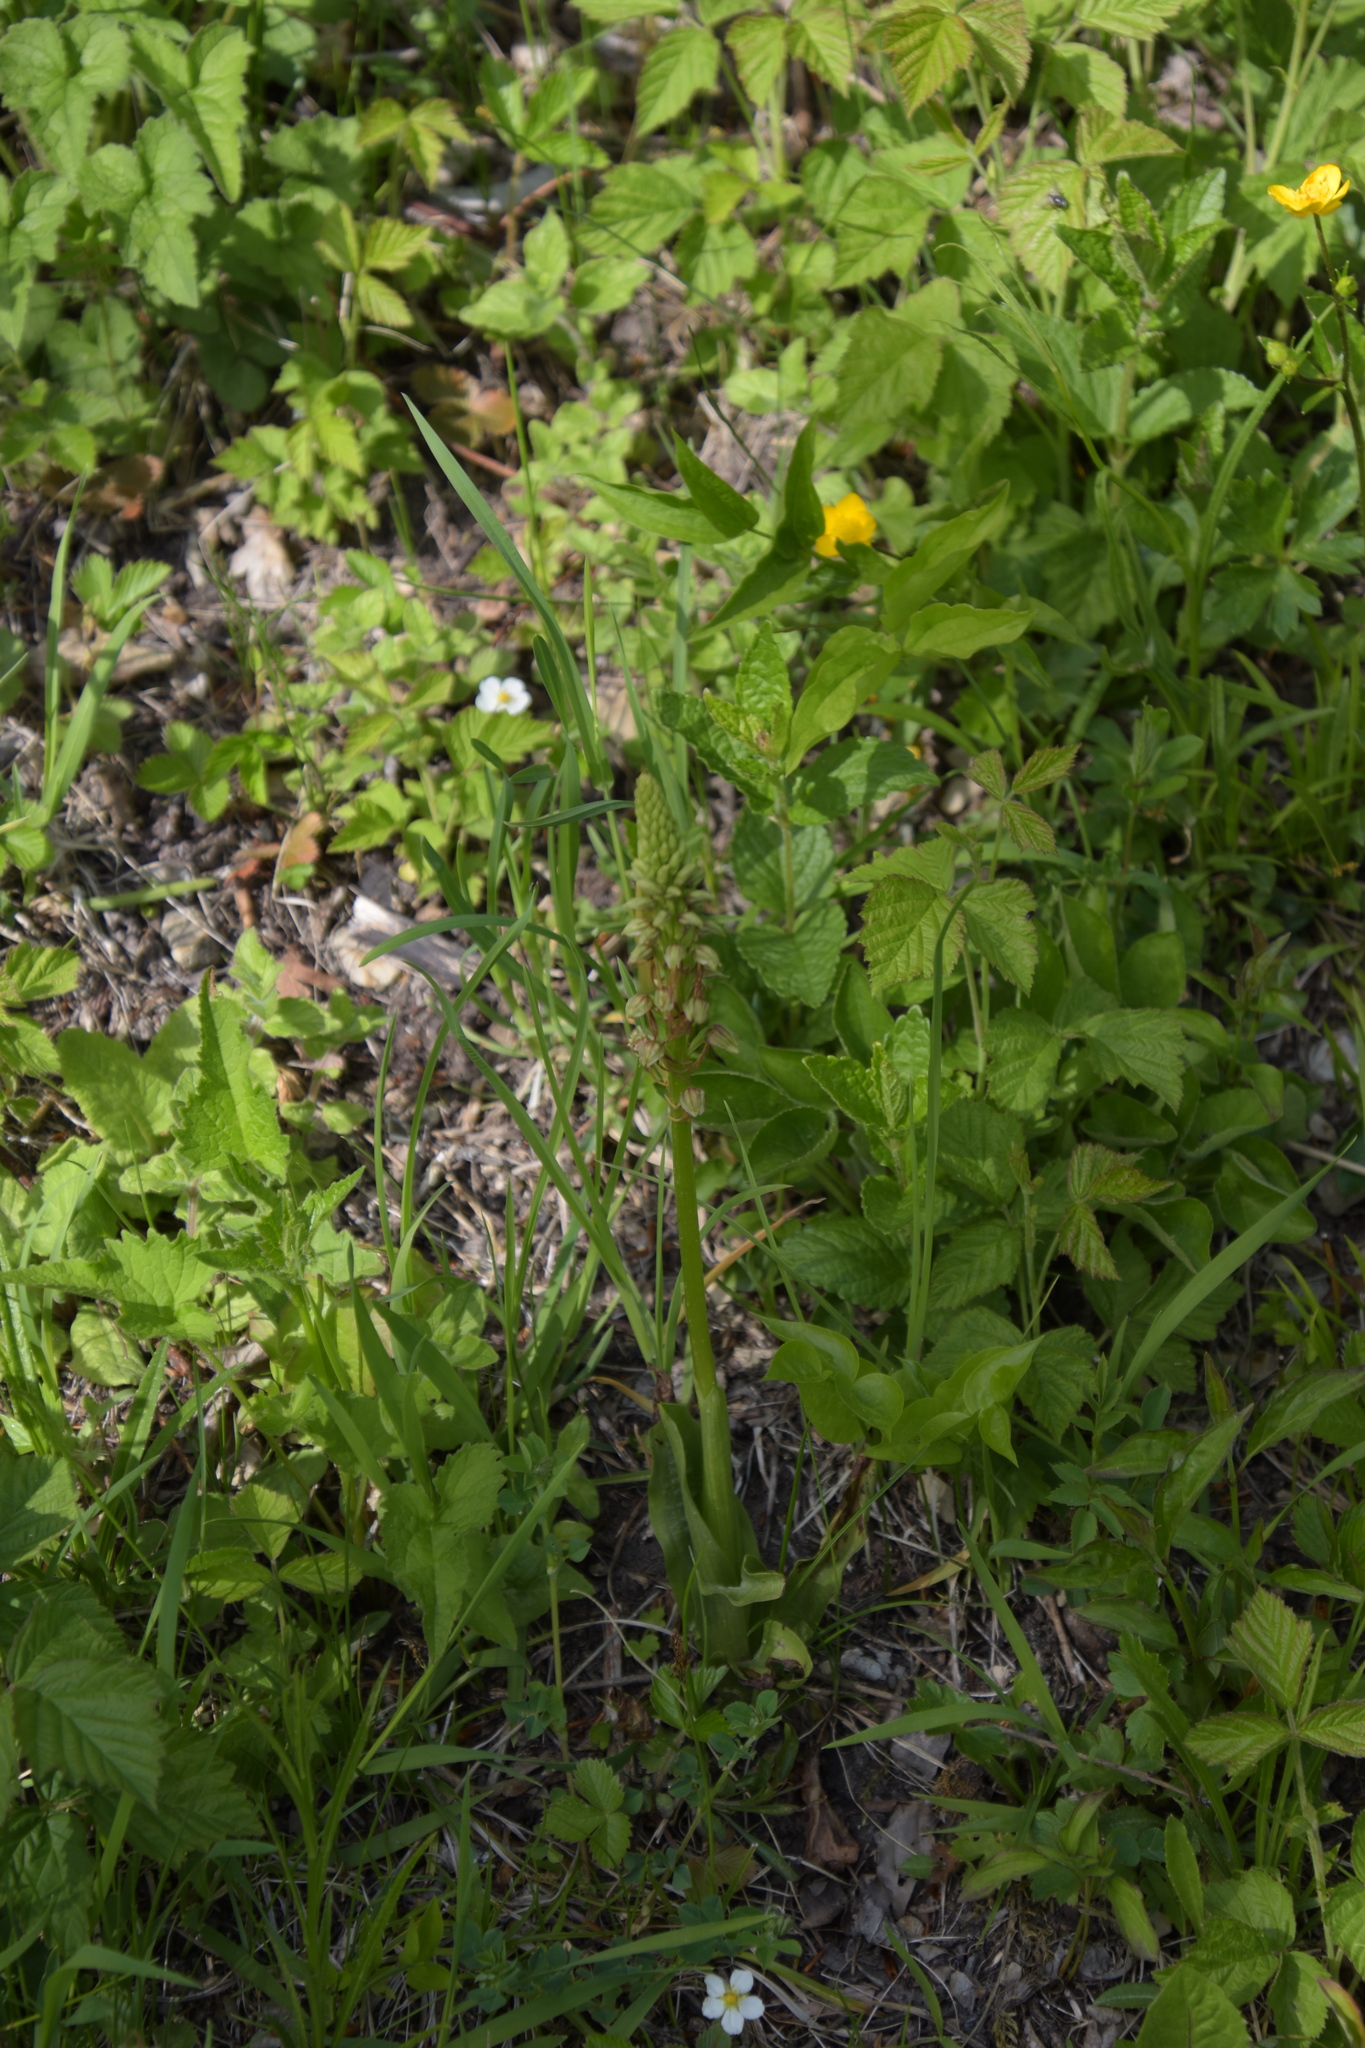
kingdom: Plantae
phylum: Tracheophyta
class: Liliopsida
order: Asparagales
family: Orchidaceae
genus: Orchis
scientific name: Orchis anthropophora
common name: Man orchid
